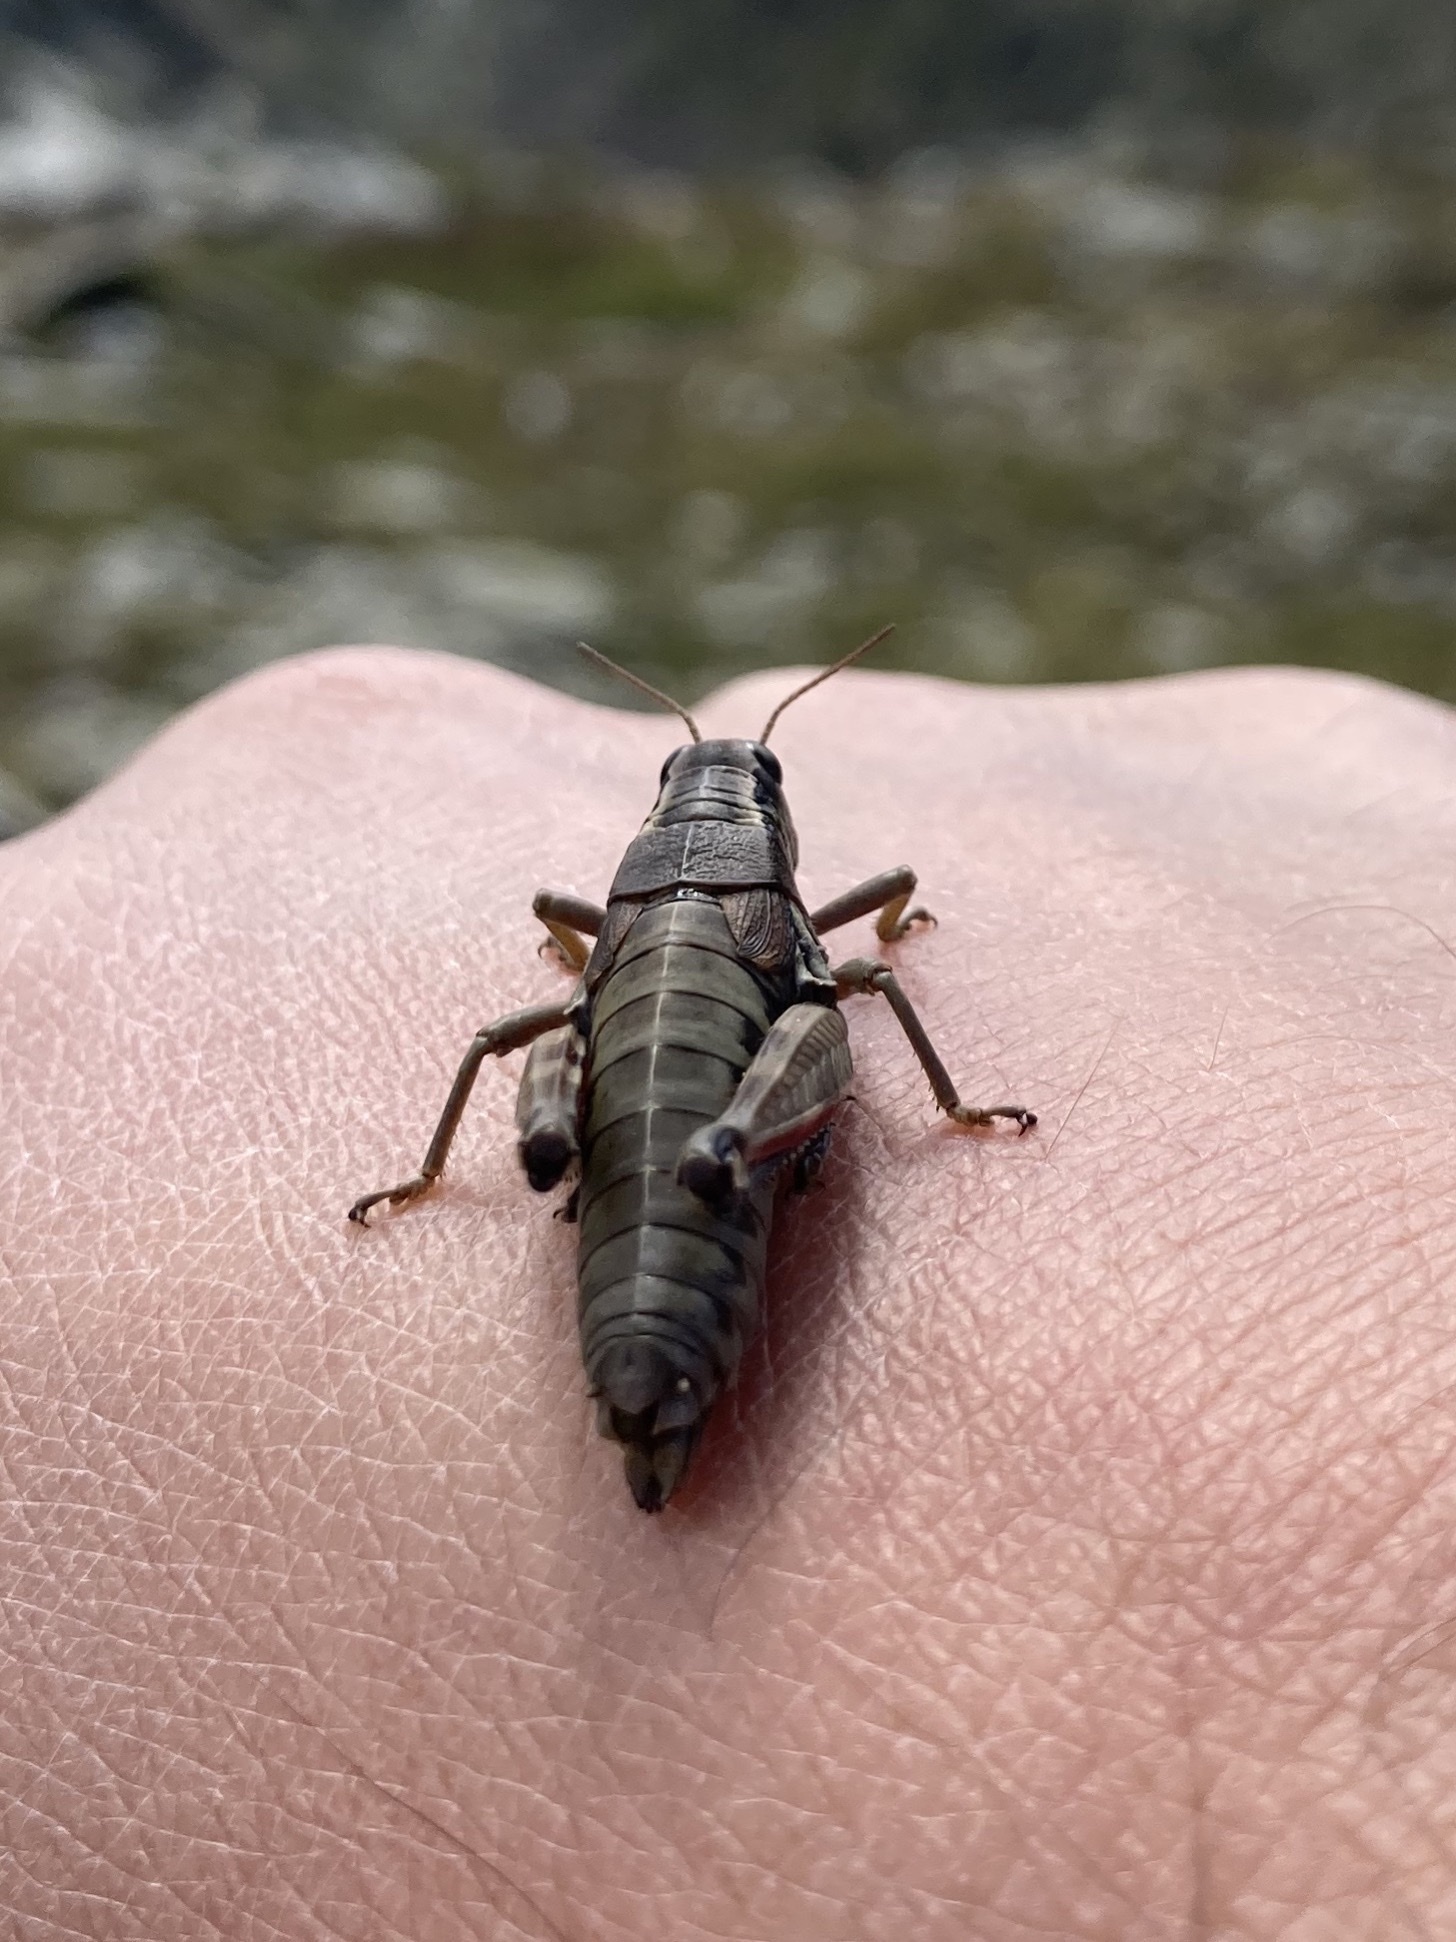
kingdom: Animalia
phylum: Arthropoda
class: Insecta
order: Orthoptera
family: Acrididae
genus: Podisma
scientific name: Podisma pedestris
